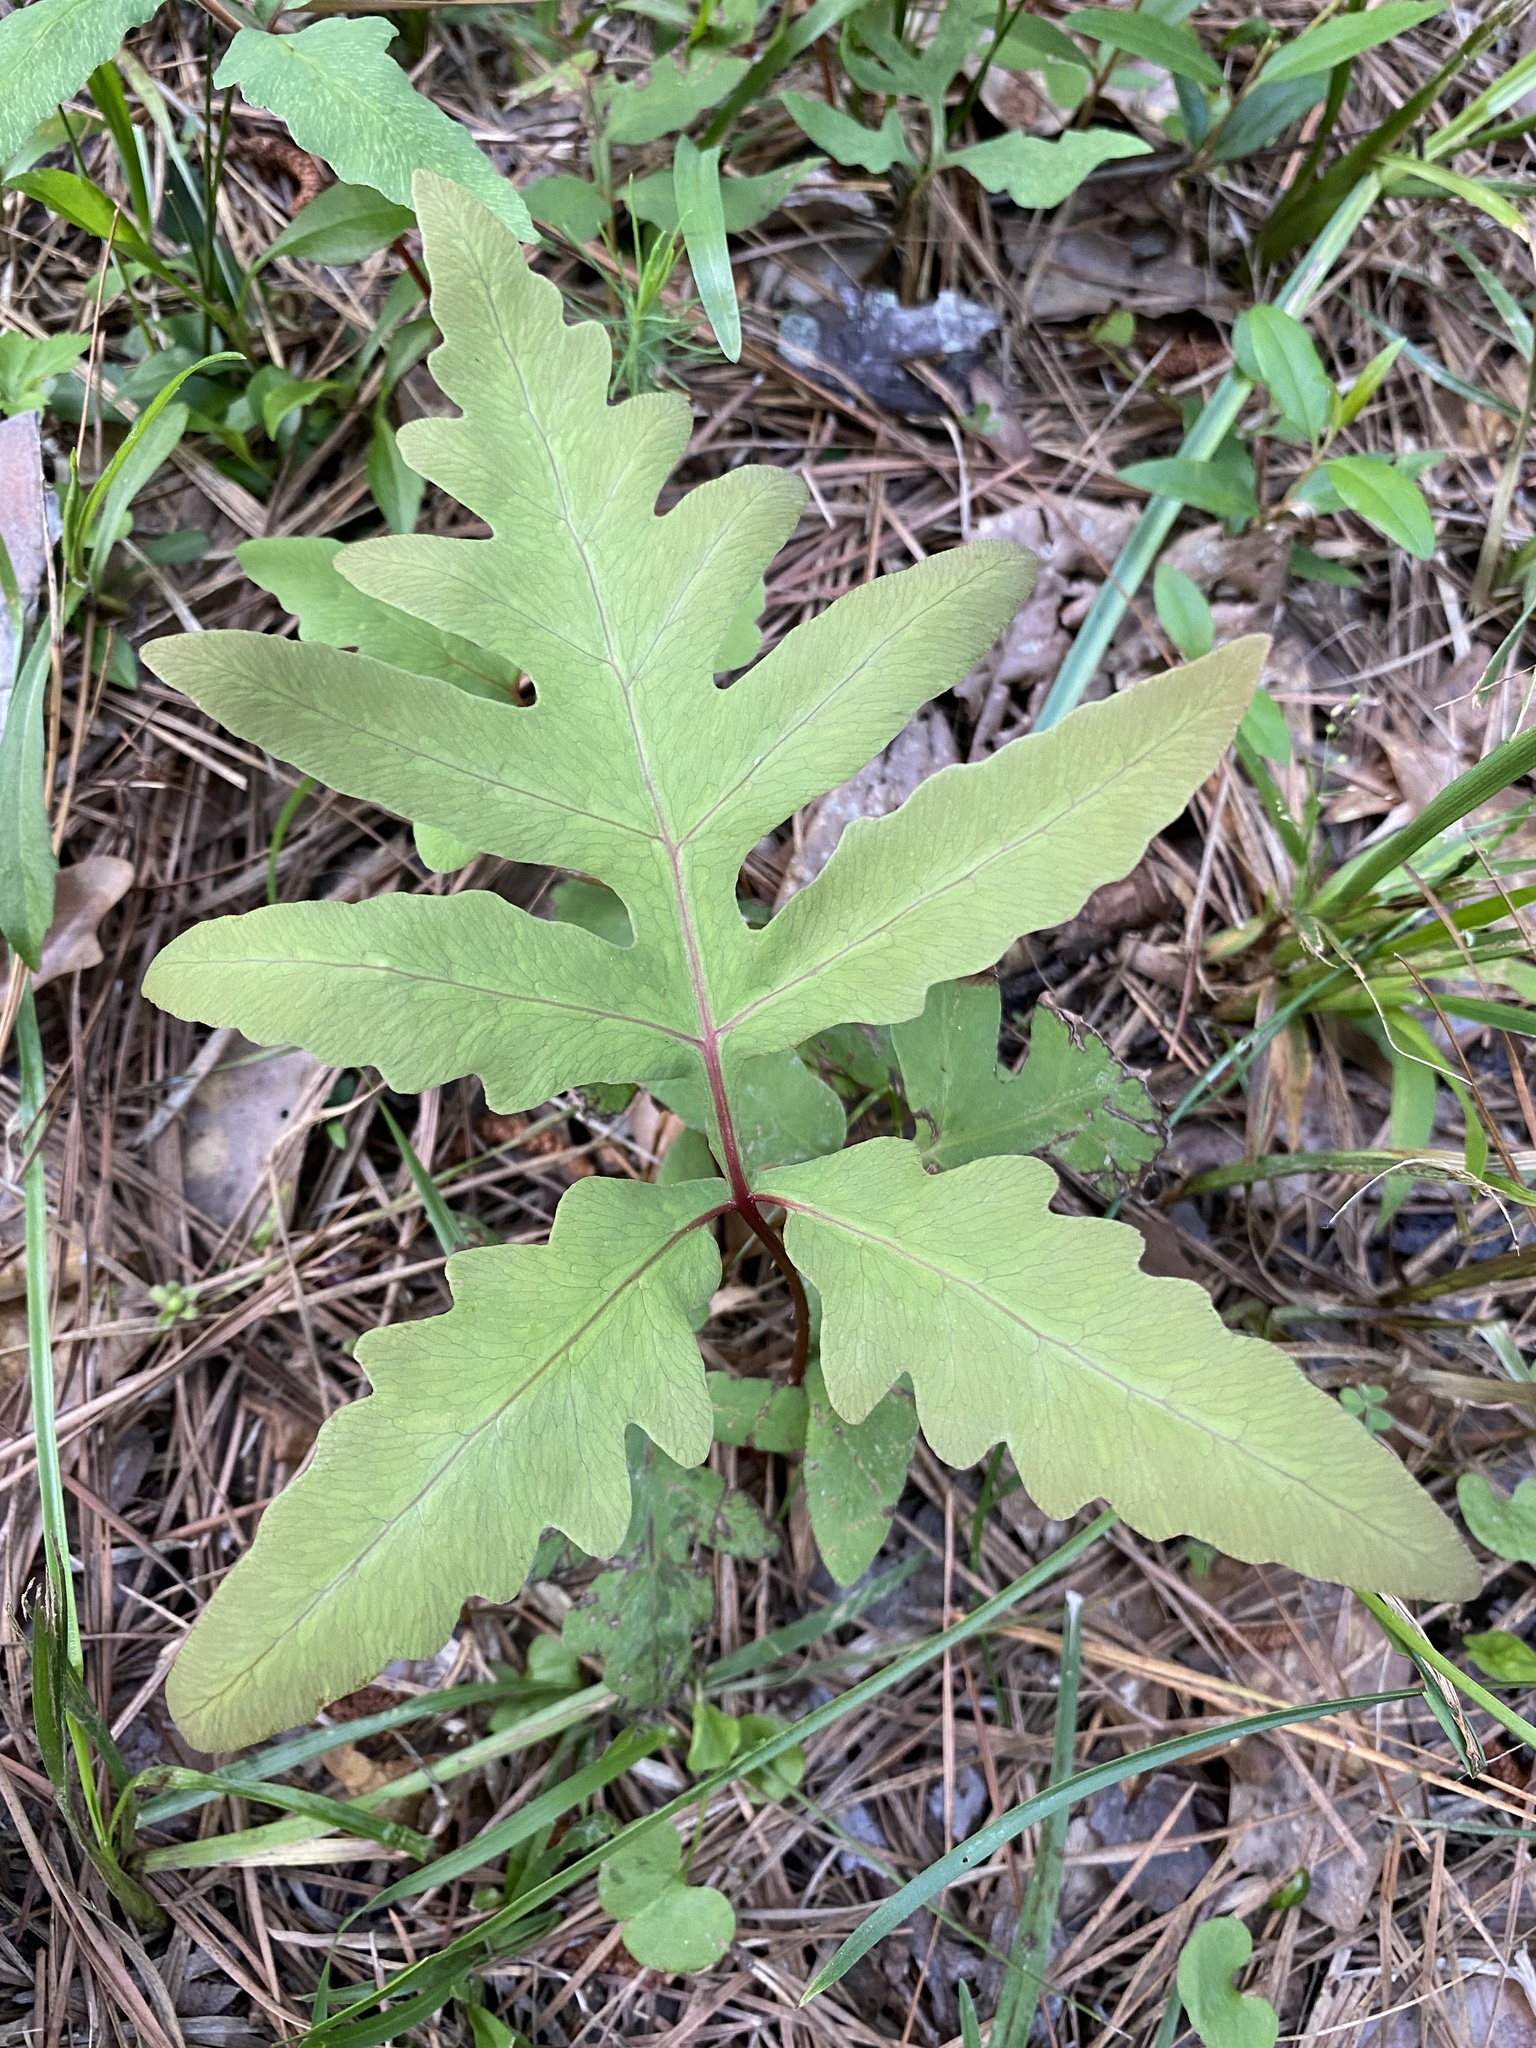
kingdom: Plantae
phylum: Tracheophyta
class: Polypodiopsida
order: Polypodiales
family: Onocleaceae
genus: Onoclea
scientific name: Onoclea sensibilis
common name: Sensitive fern
